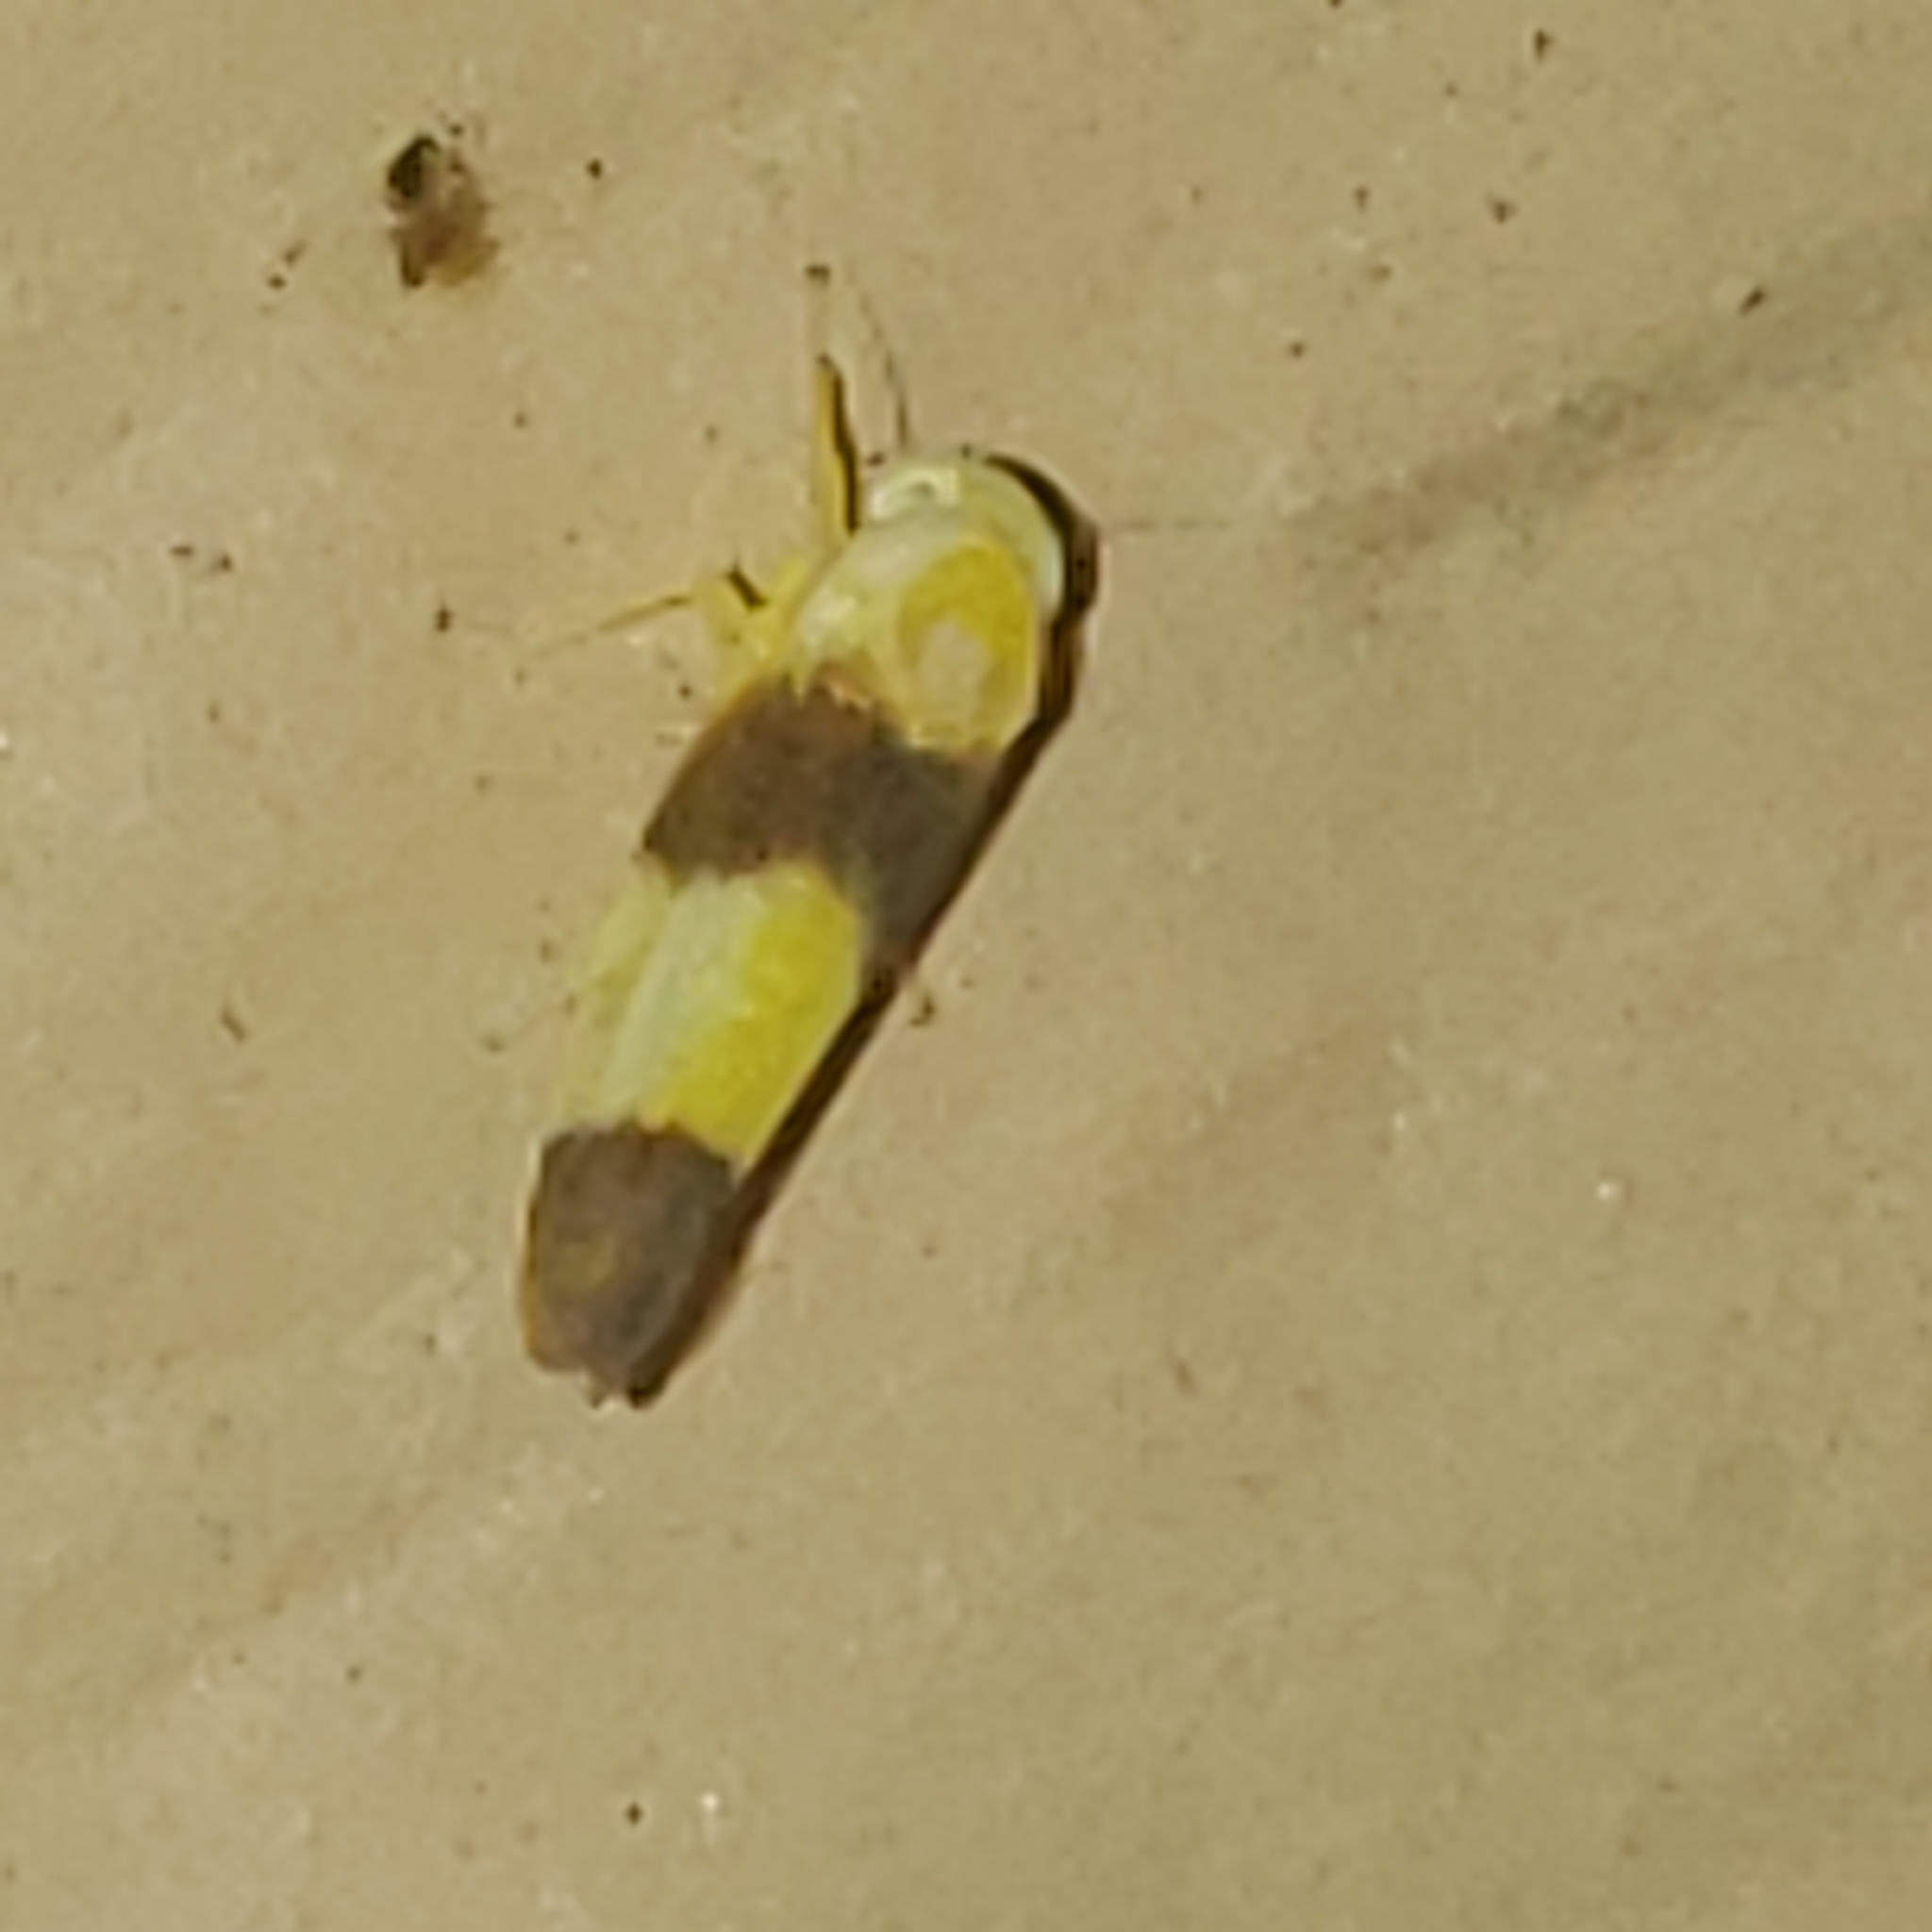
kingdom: Animalia
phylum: Arthropoda
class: Insecta
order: Hemiptera
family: Cicadellidae
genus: Alebra
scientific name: Alebra bicincta
